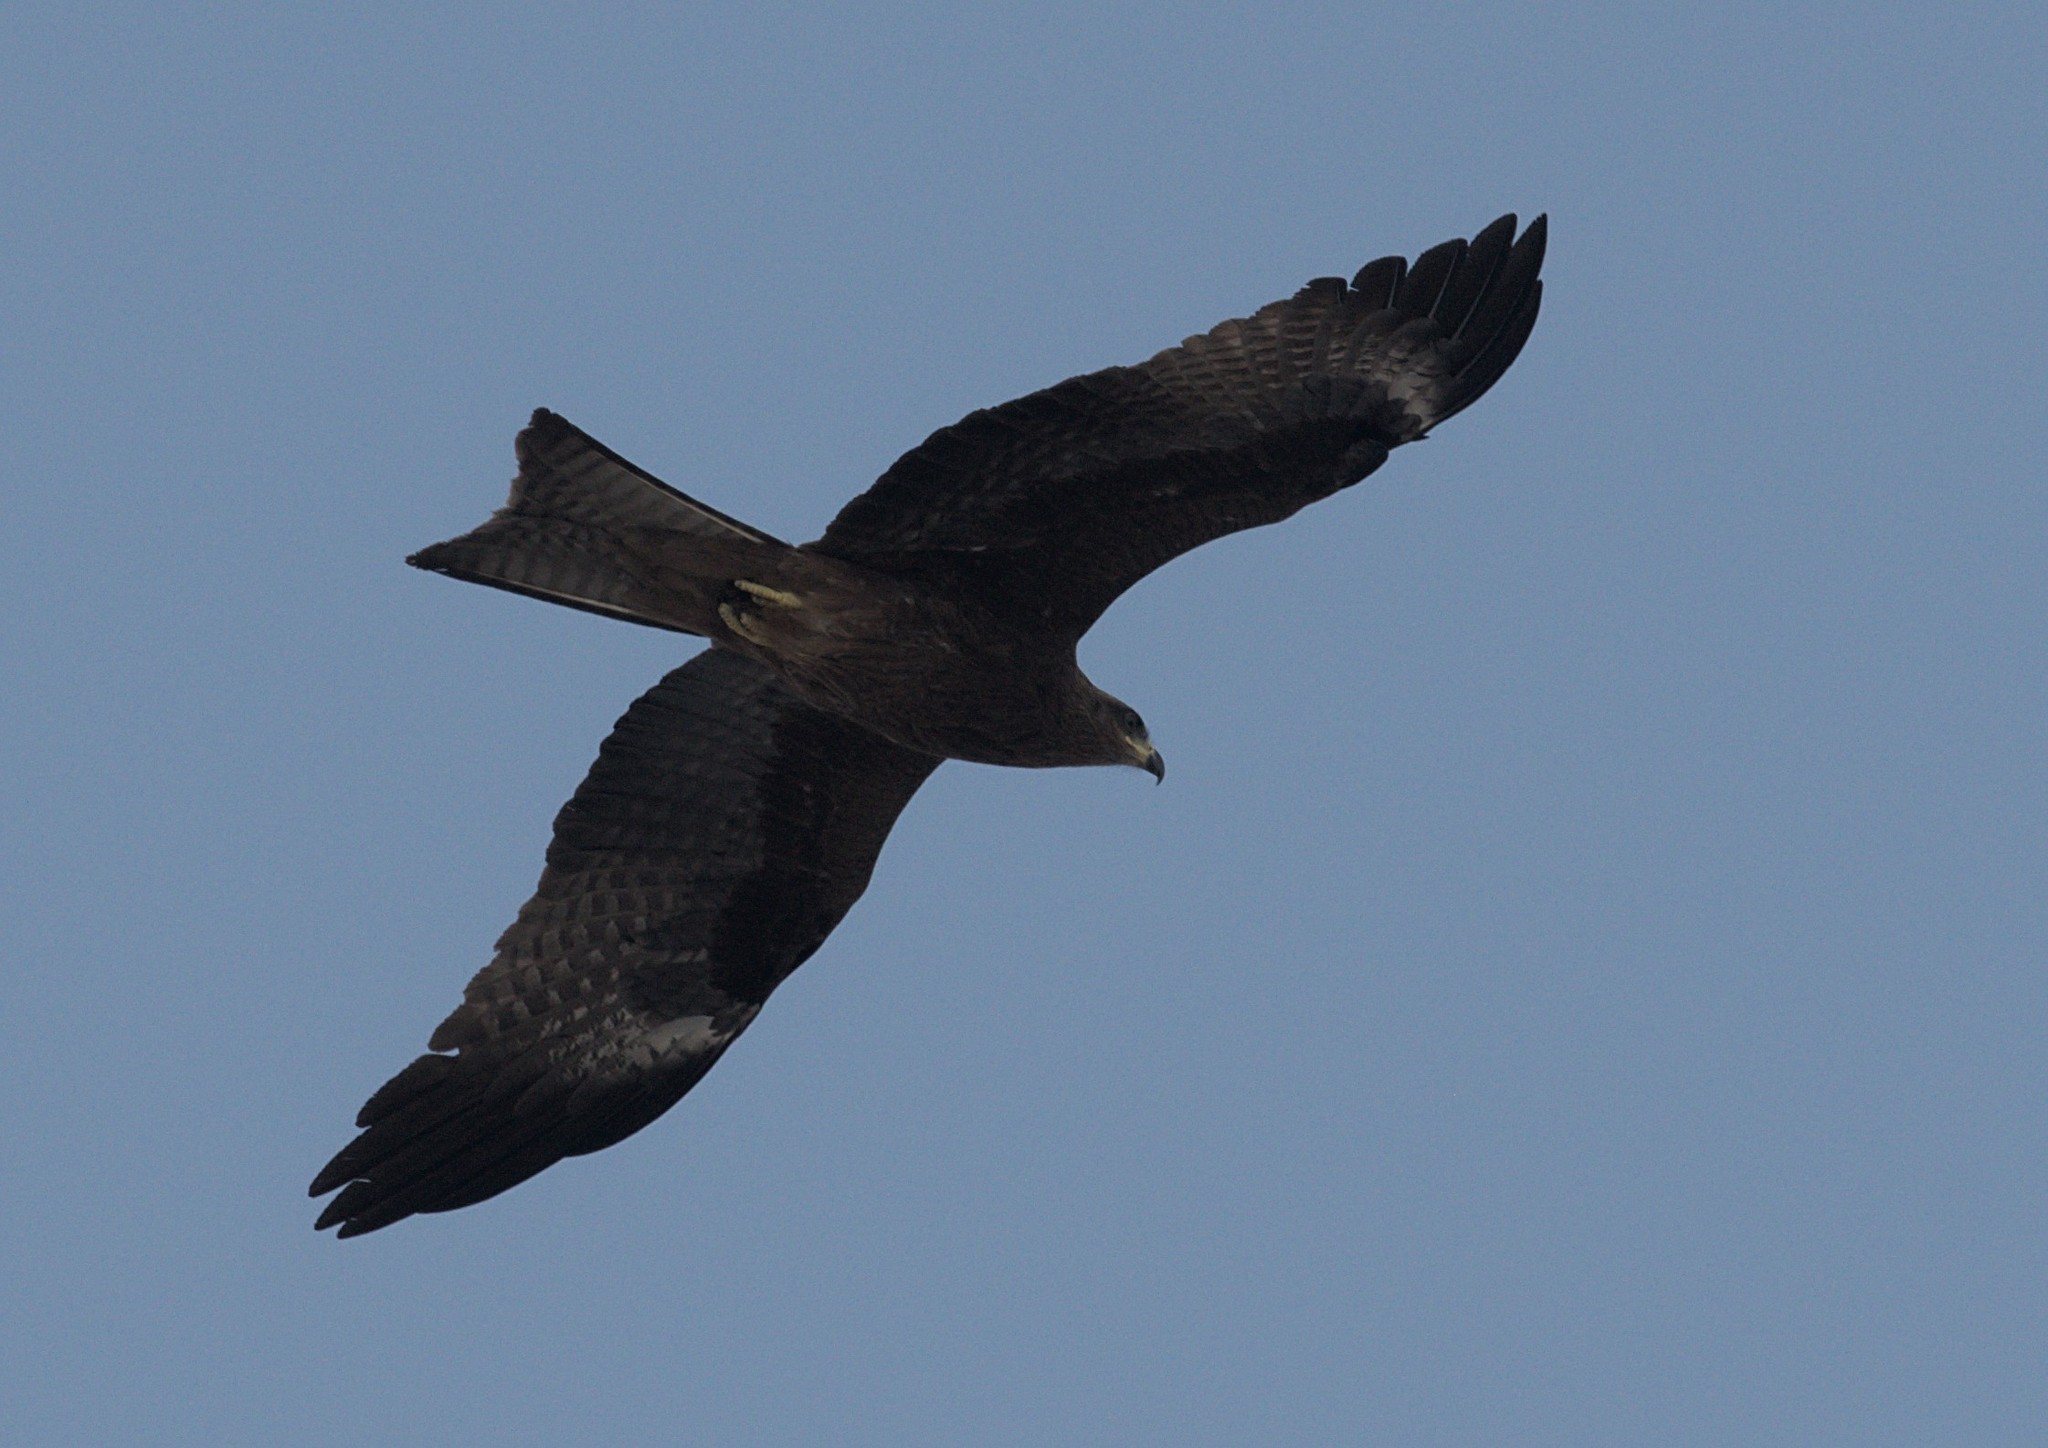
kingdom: Animalia
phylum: Chordata
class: Aves
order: Accipitriformes
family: Accipitridae
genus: Milvus
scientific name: Milvus migrans
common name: Black kite
